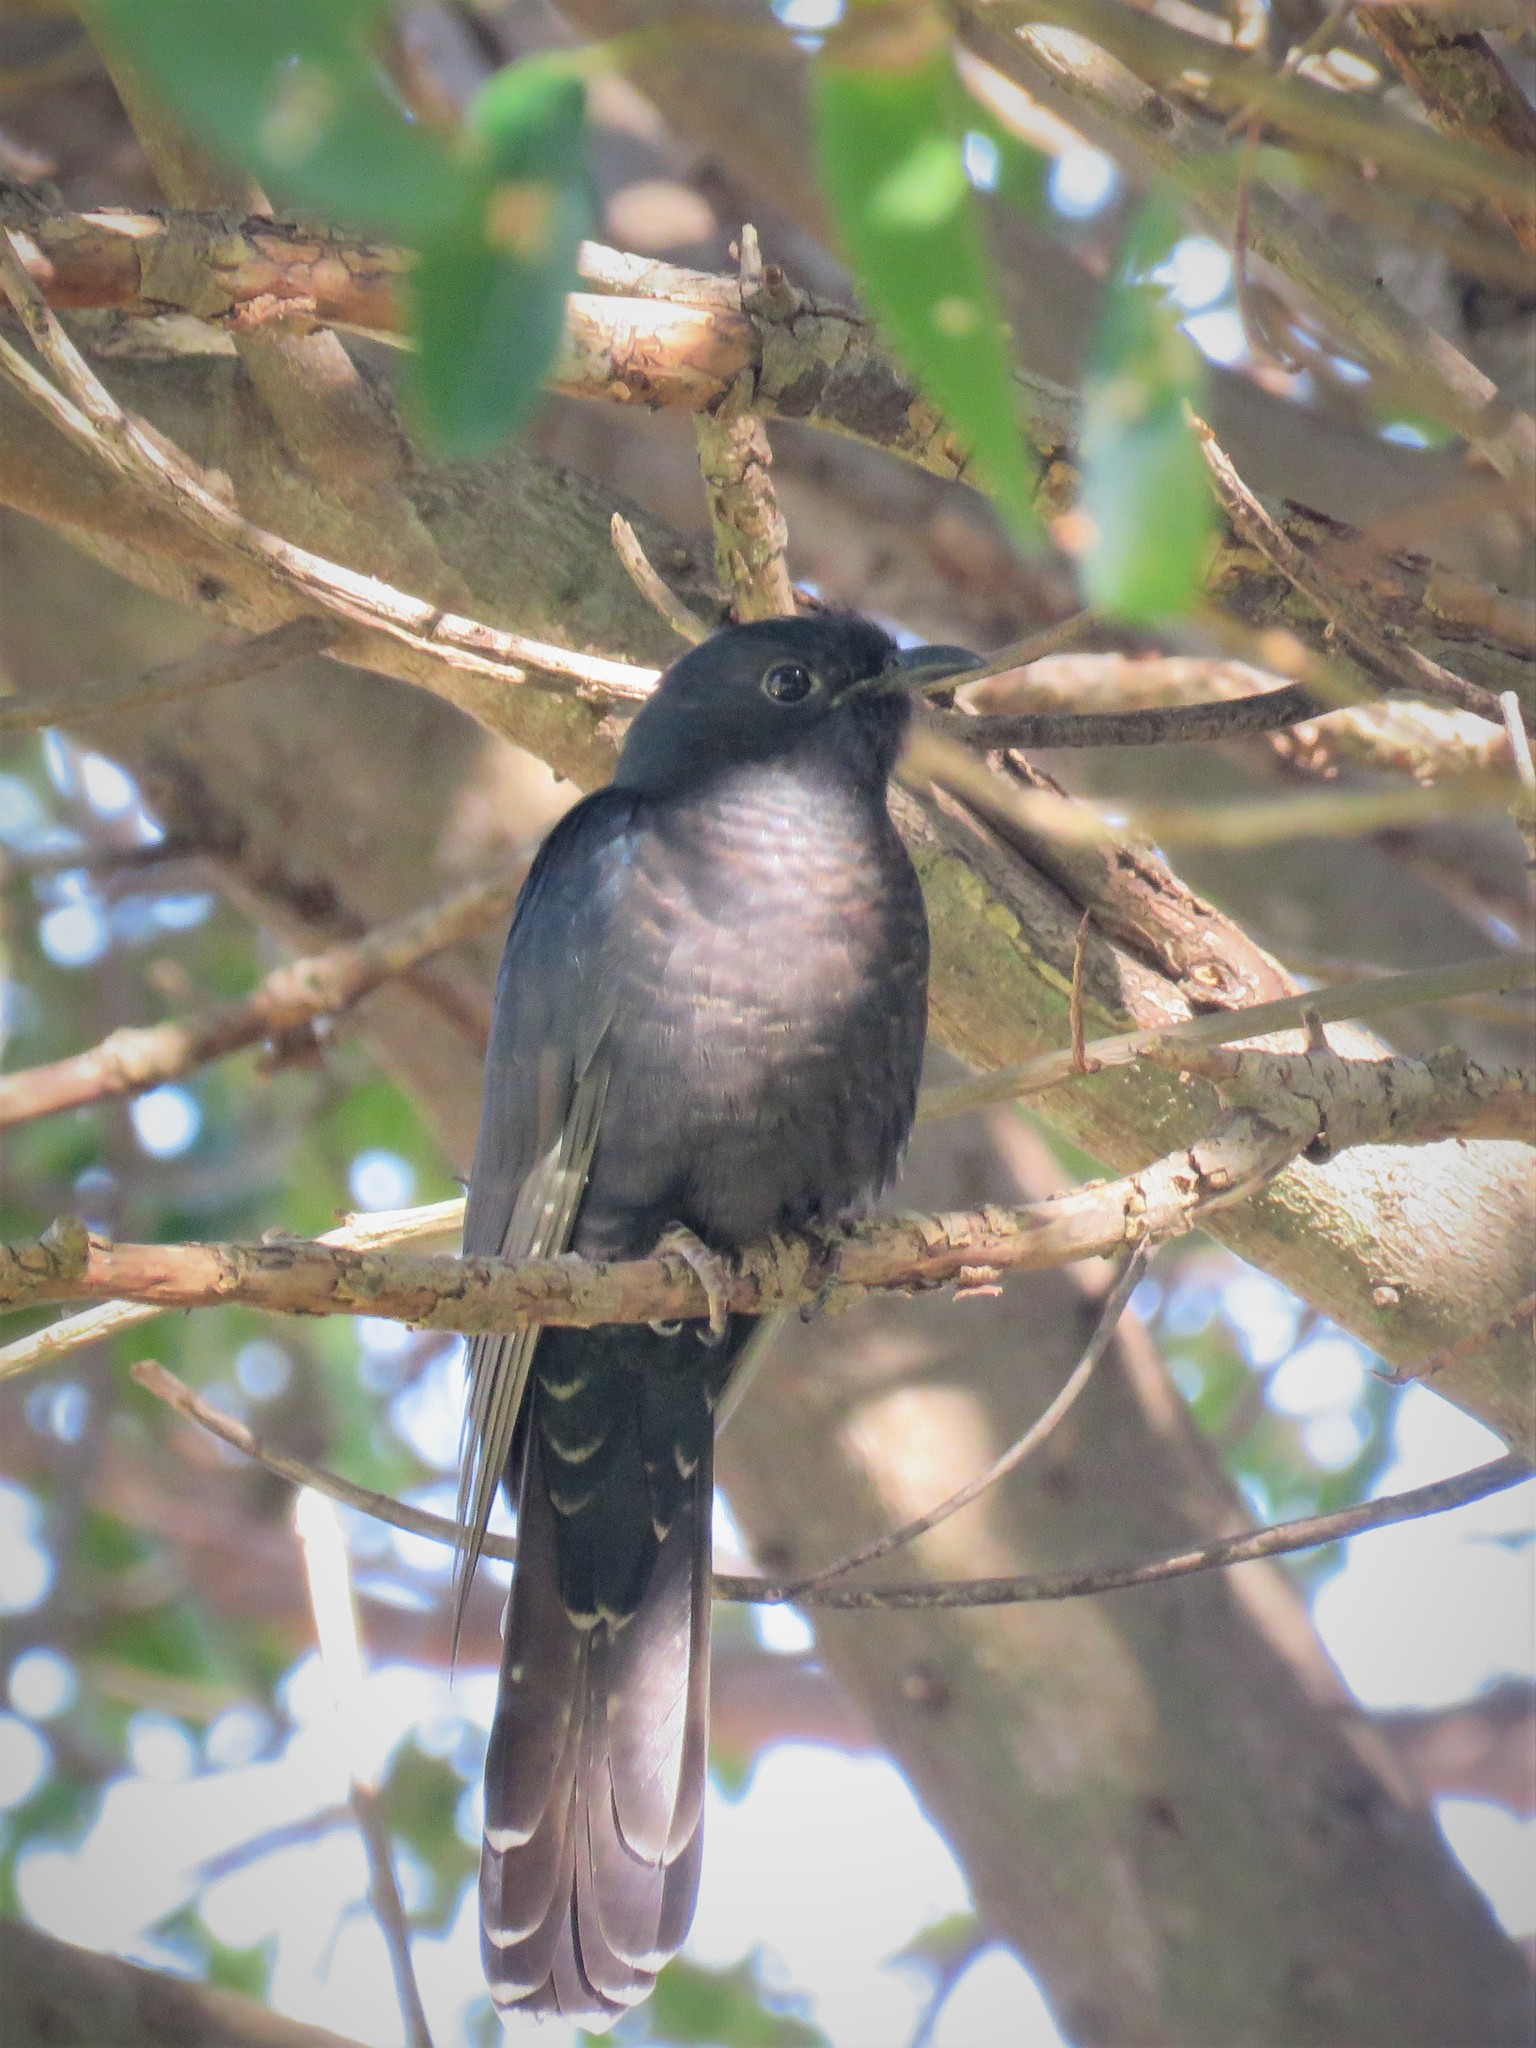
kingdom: Animalia
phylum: Chordata
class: Aves
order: Cuculiformes
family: Cuculidae
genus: Cuculus
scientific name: Cuculus clamosus
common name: Black cuckoo
